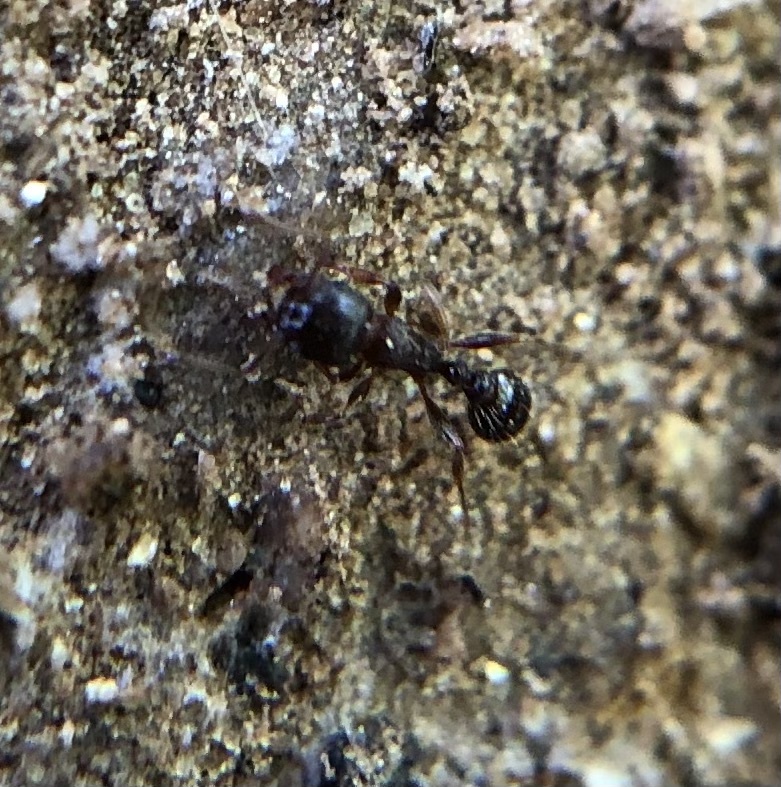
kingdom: Animalia
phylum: Arthropoda
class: Insecta
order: Hymenoptera
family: Formicidae
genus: Tetramorium
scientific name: Tetramorium immigrans
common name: Pavement ant
